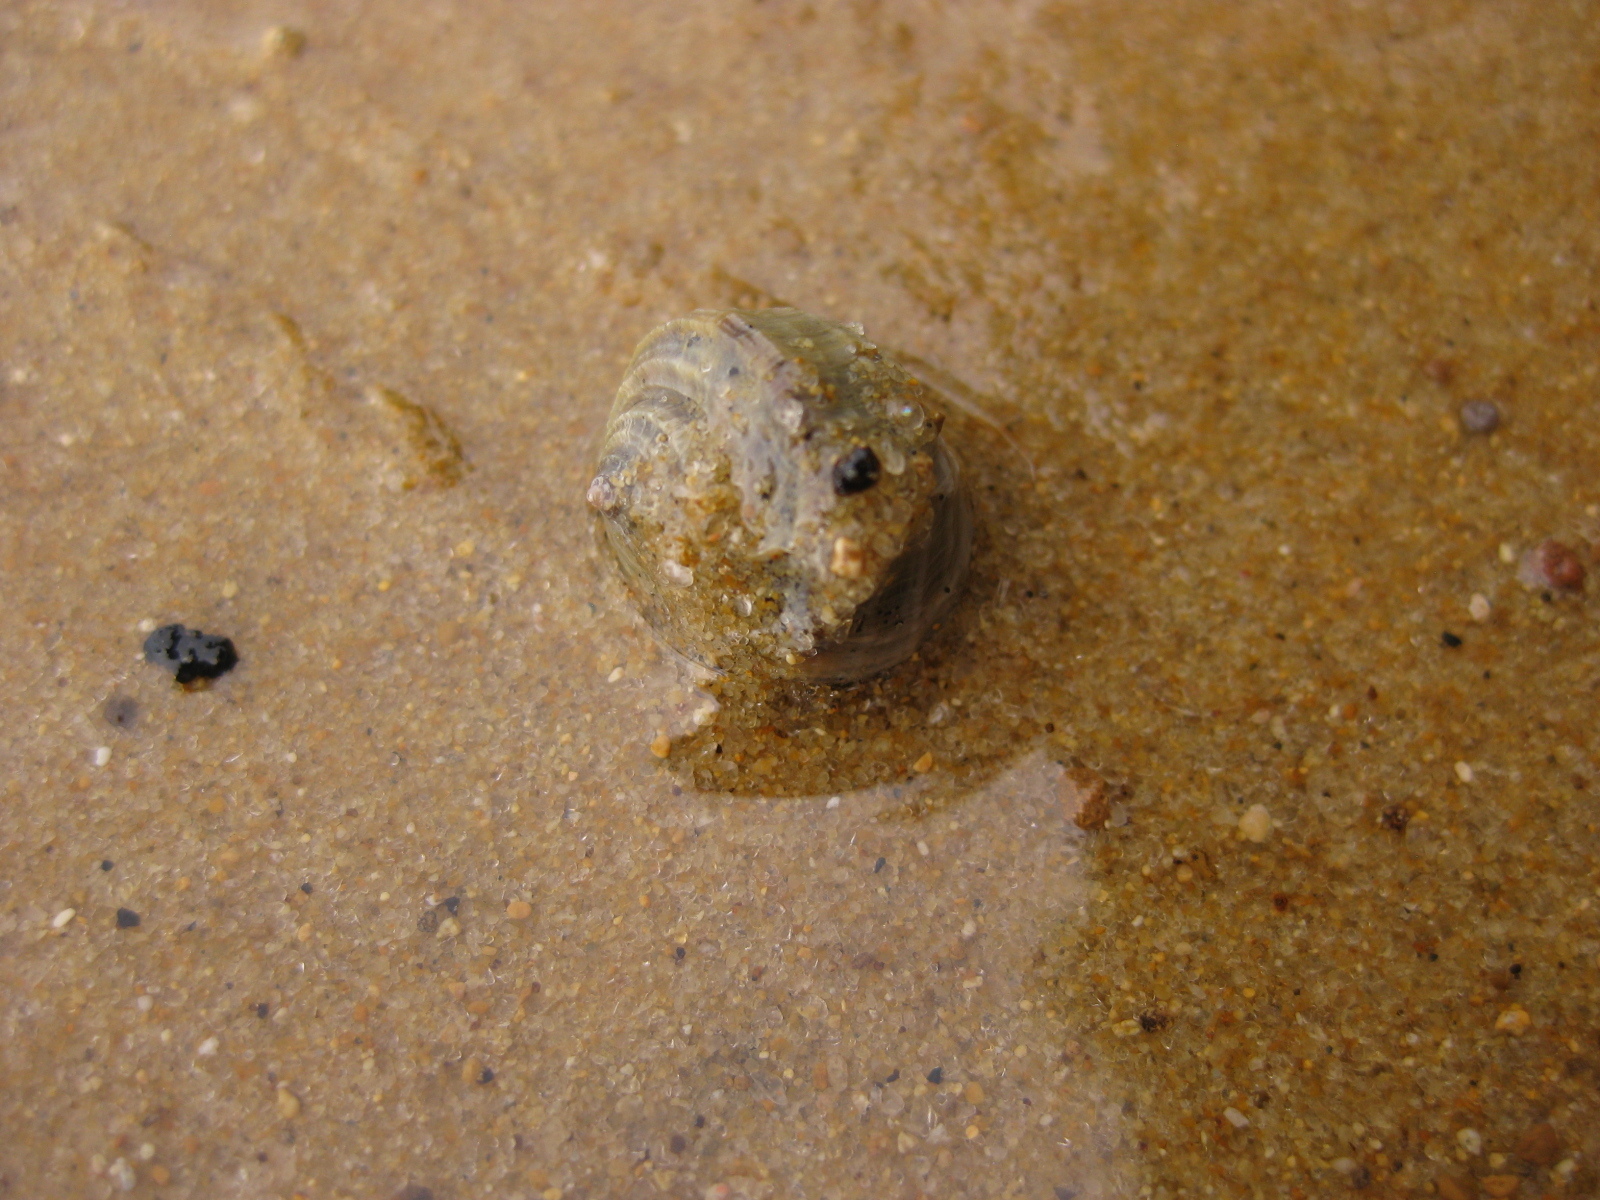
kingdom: Animalia
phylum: Mollusca
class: Gastropoda
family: Amphibolidae
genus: Amphibola
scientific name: Amphibola crenata
